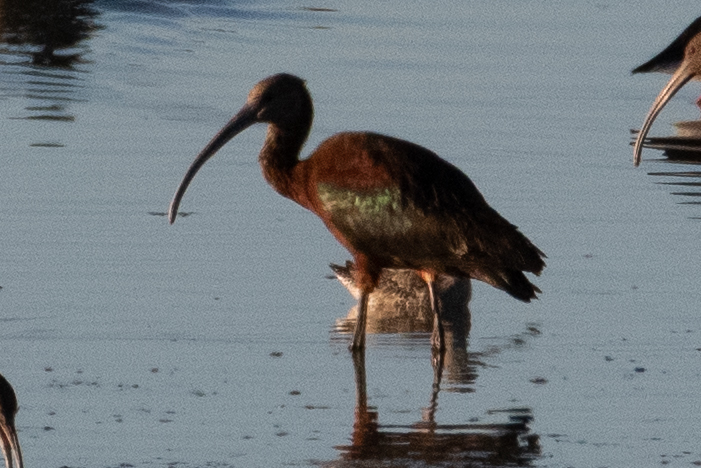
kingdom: Animalia
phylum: Chordata
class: Aves
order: Pelecaniformes
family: Threskiornithidae
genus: Plegadis
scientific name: Plegadis chihi
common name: White-faced ibis
